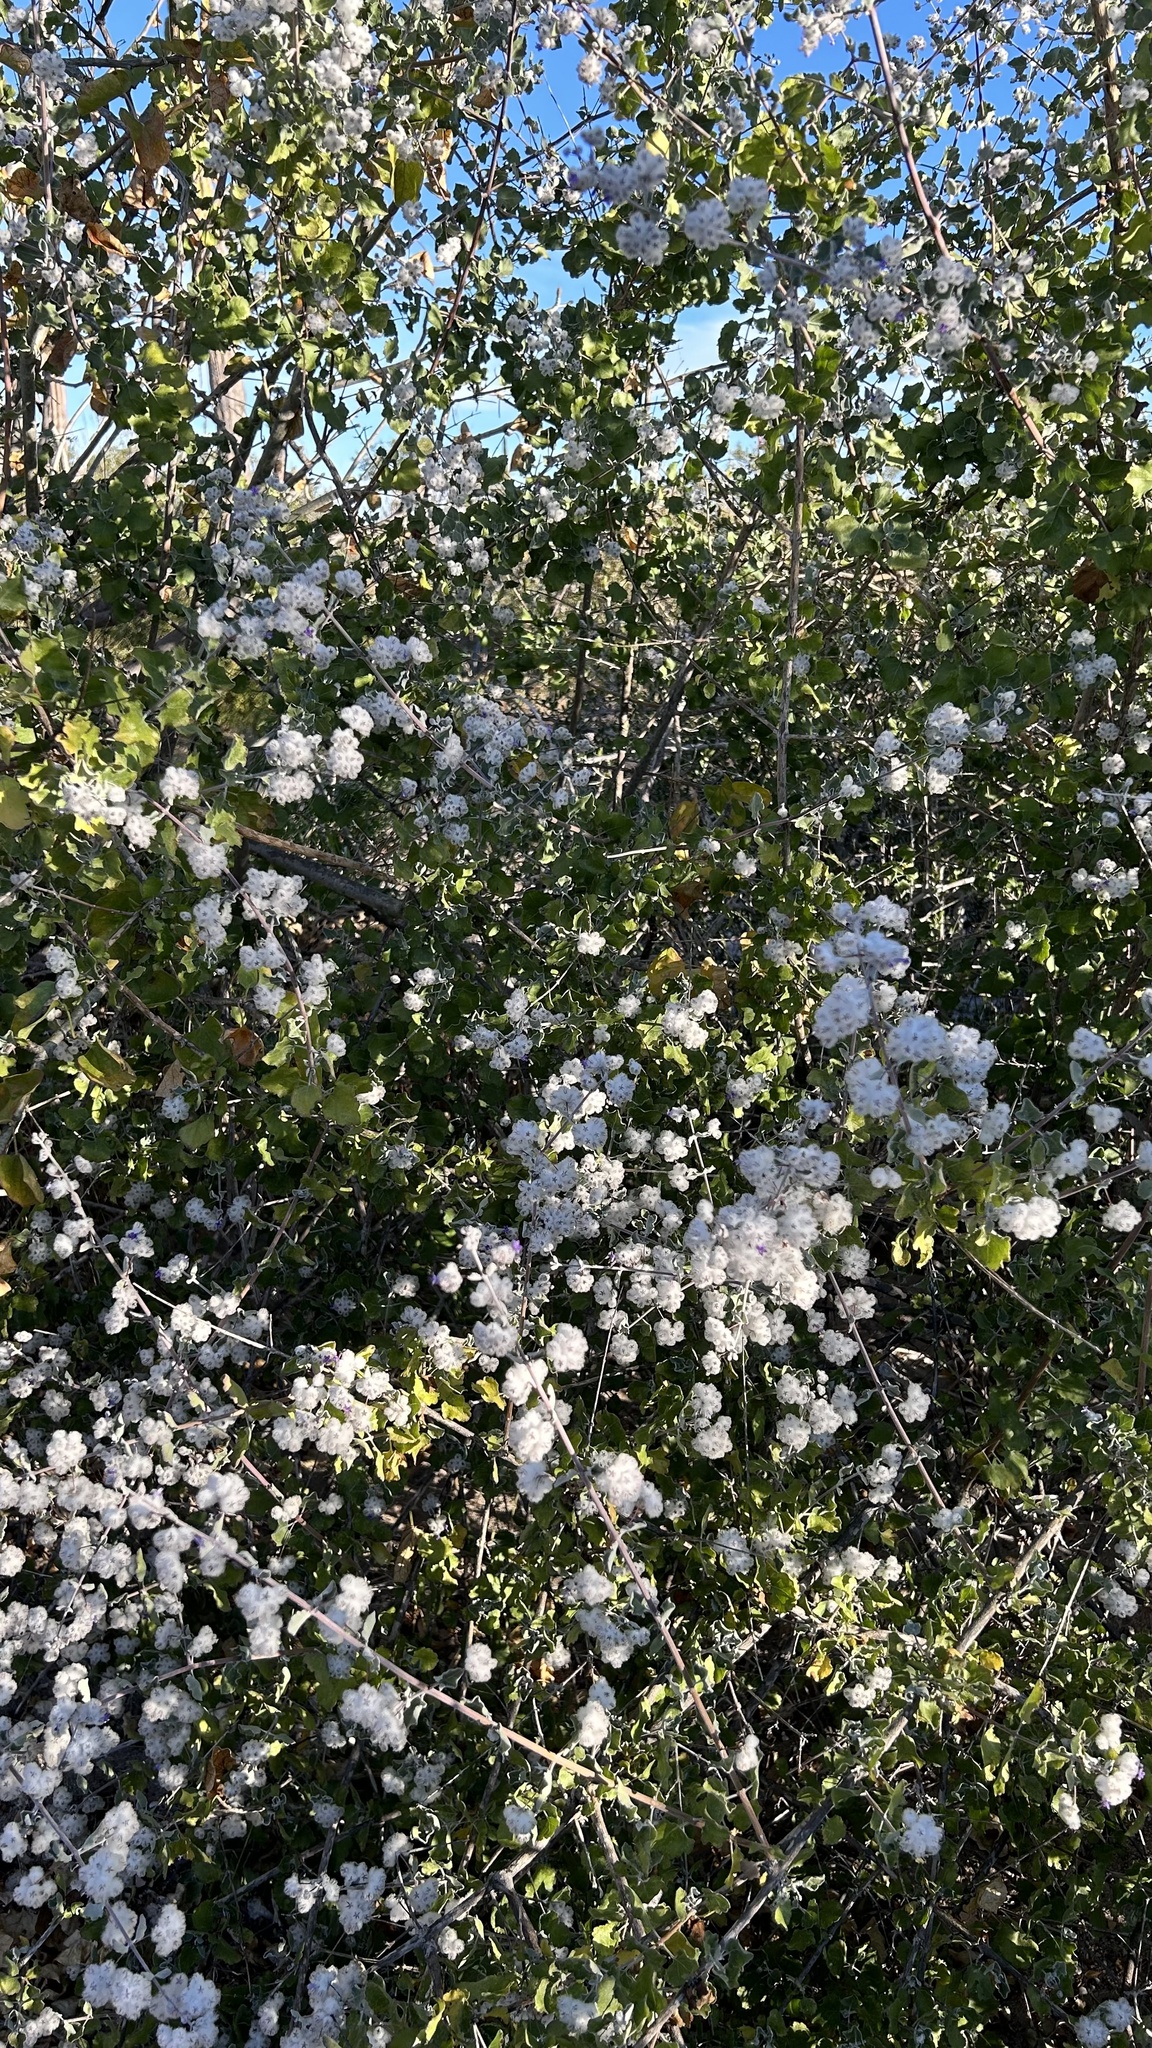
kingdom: Plantae
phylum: Tracheophyta
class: Magnoliopsida
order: Lamiales
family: Lamiaceae
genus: Condea
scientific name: Condea laniflora
